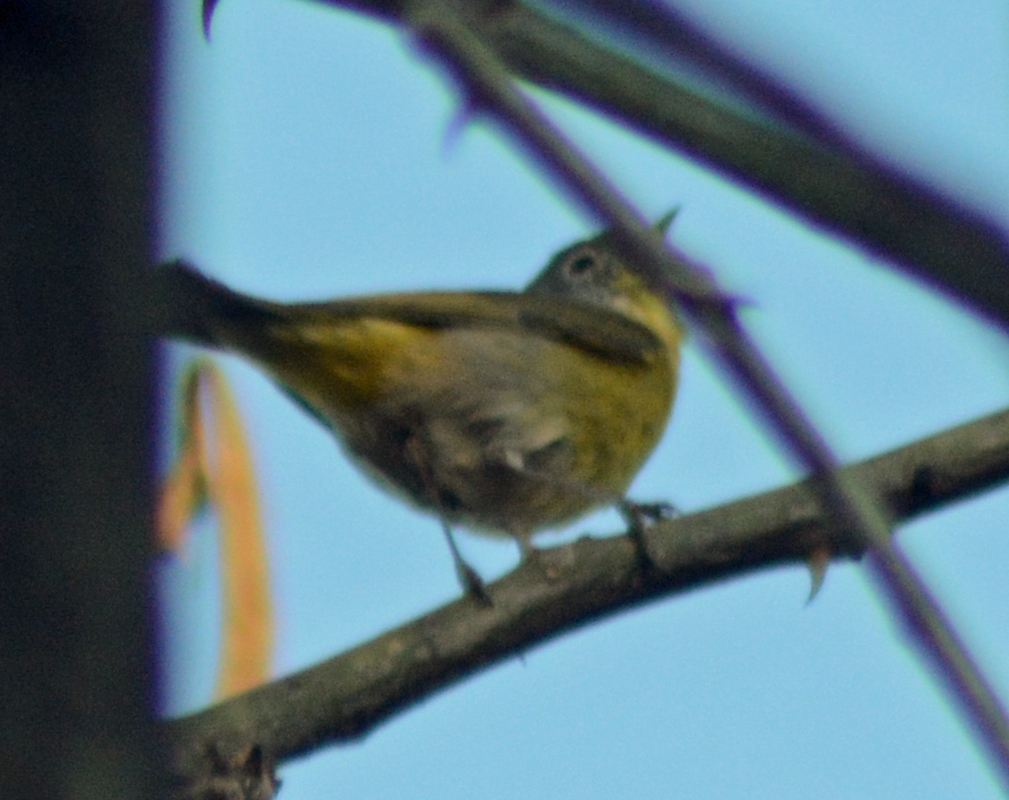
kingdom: Animalia
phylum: Chordata
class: Aves
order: Passeriformes
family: Parulidae
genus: Leiothlypis
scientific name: Leiothlypis ruficapilla
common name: Nashville warbler
